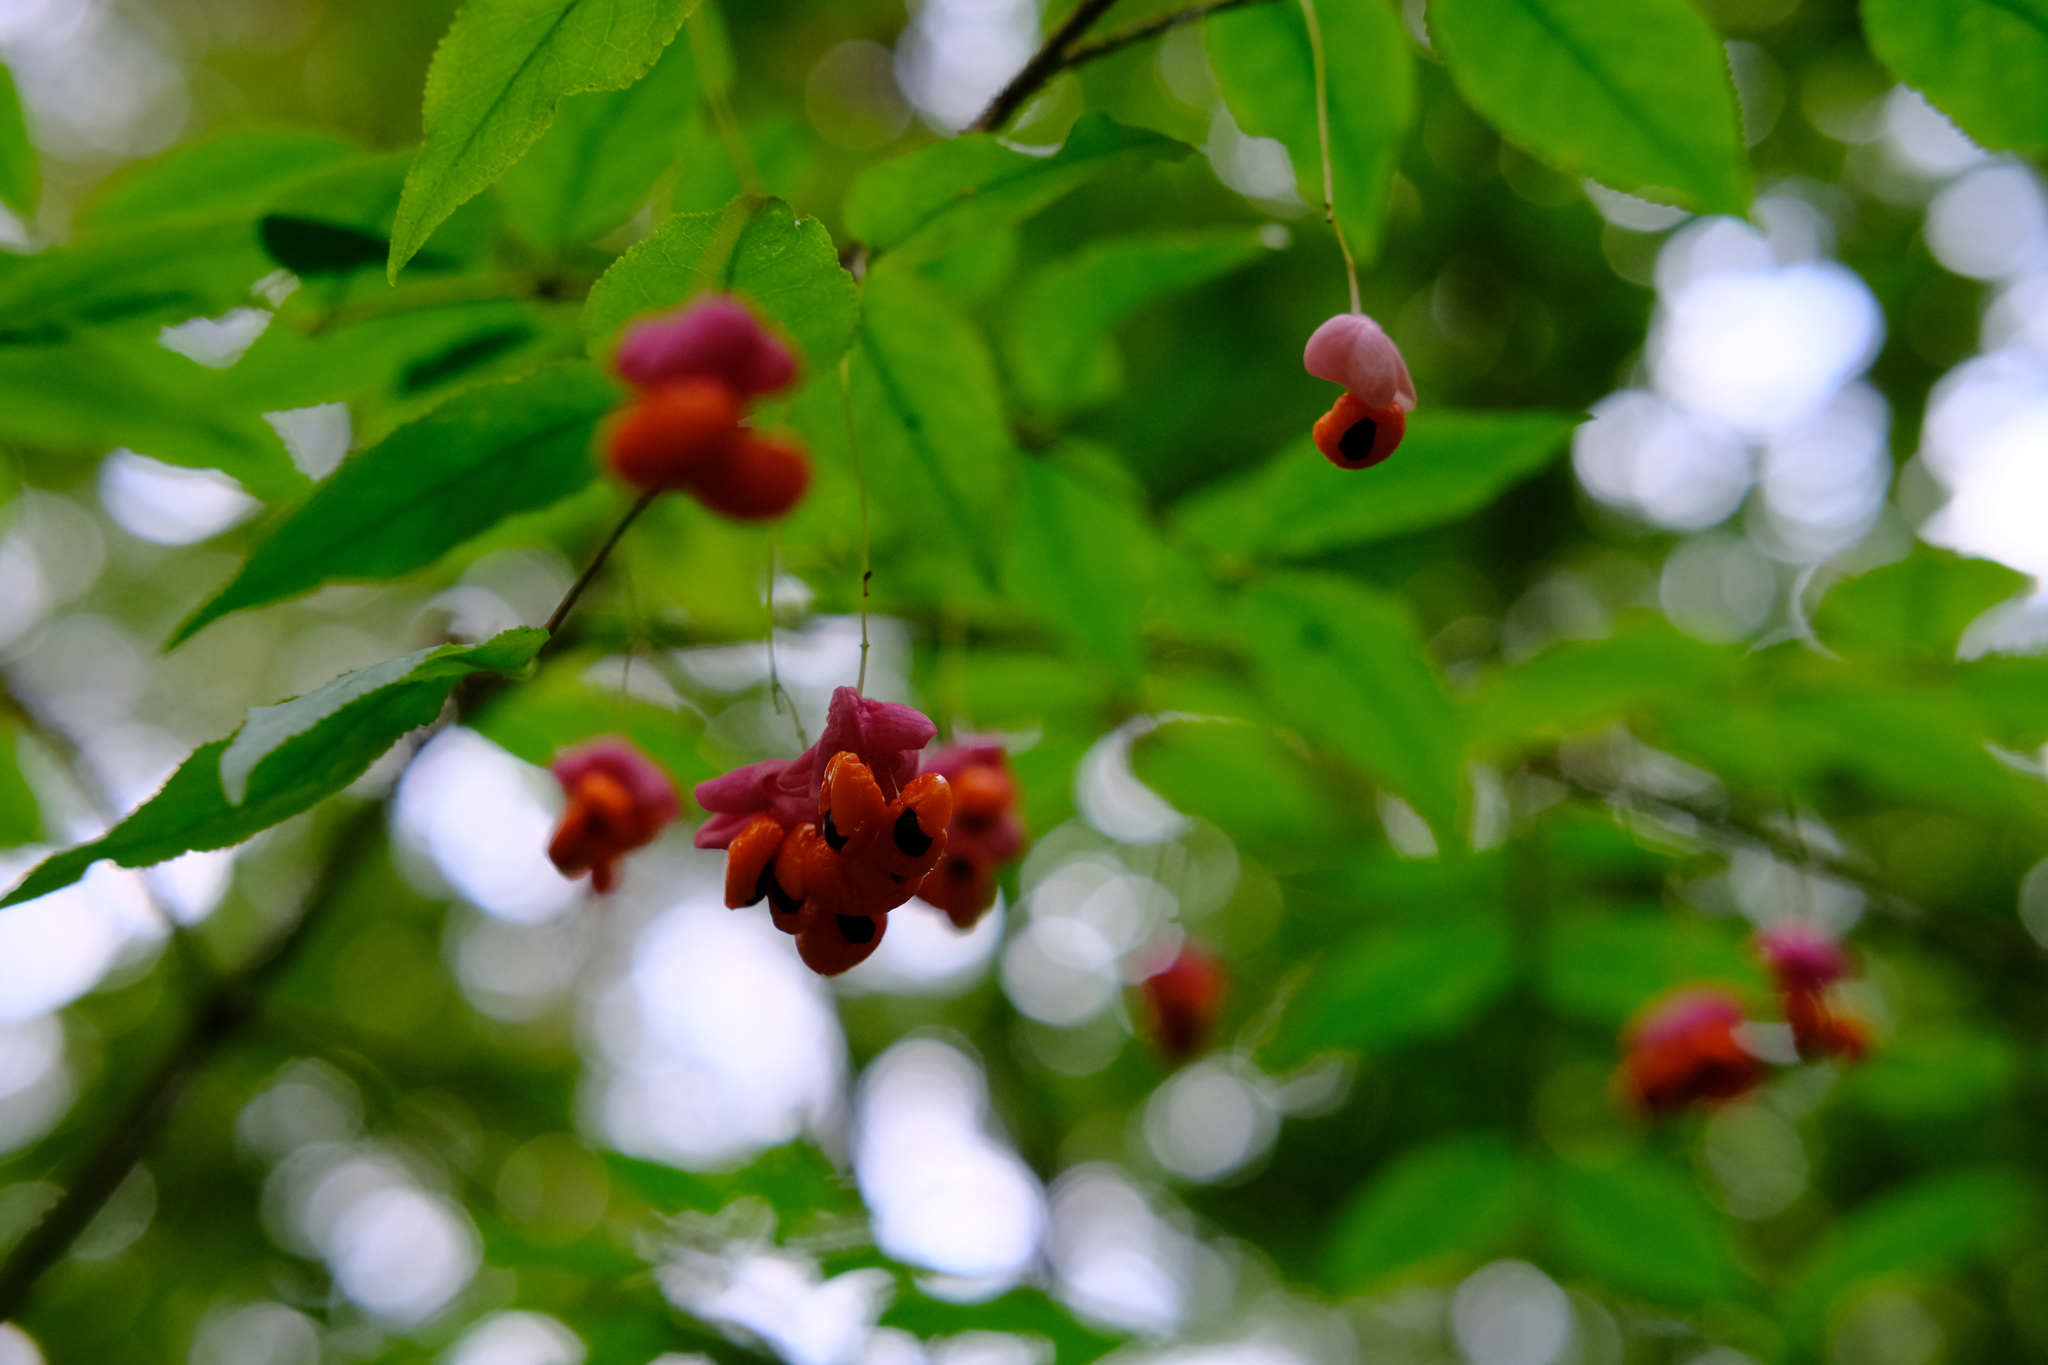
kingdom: Plantae
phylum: Tracheophyta
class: Magnoliopsida
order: Celastrales
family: Celastraceae
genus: Euonymus
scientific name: Euonymus verrucosus
